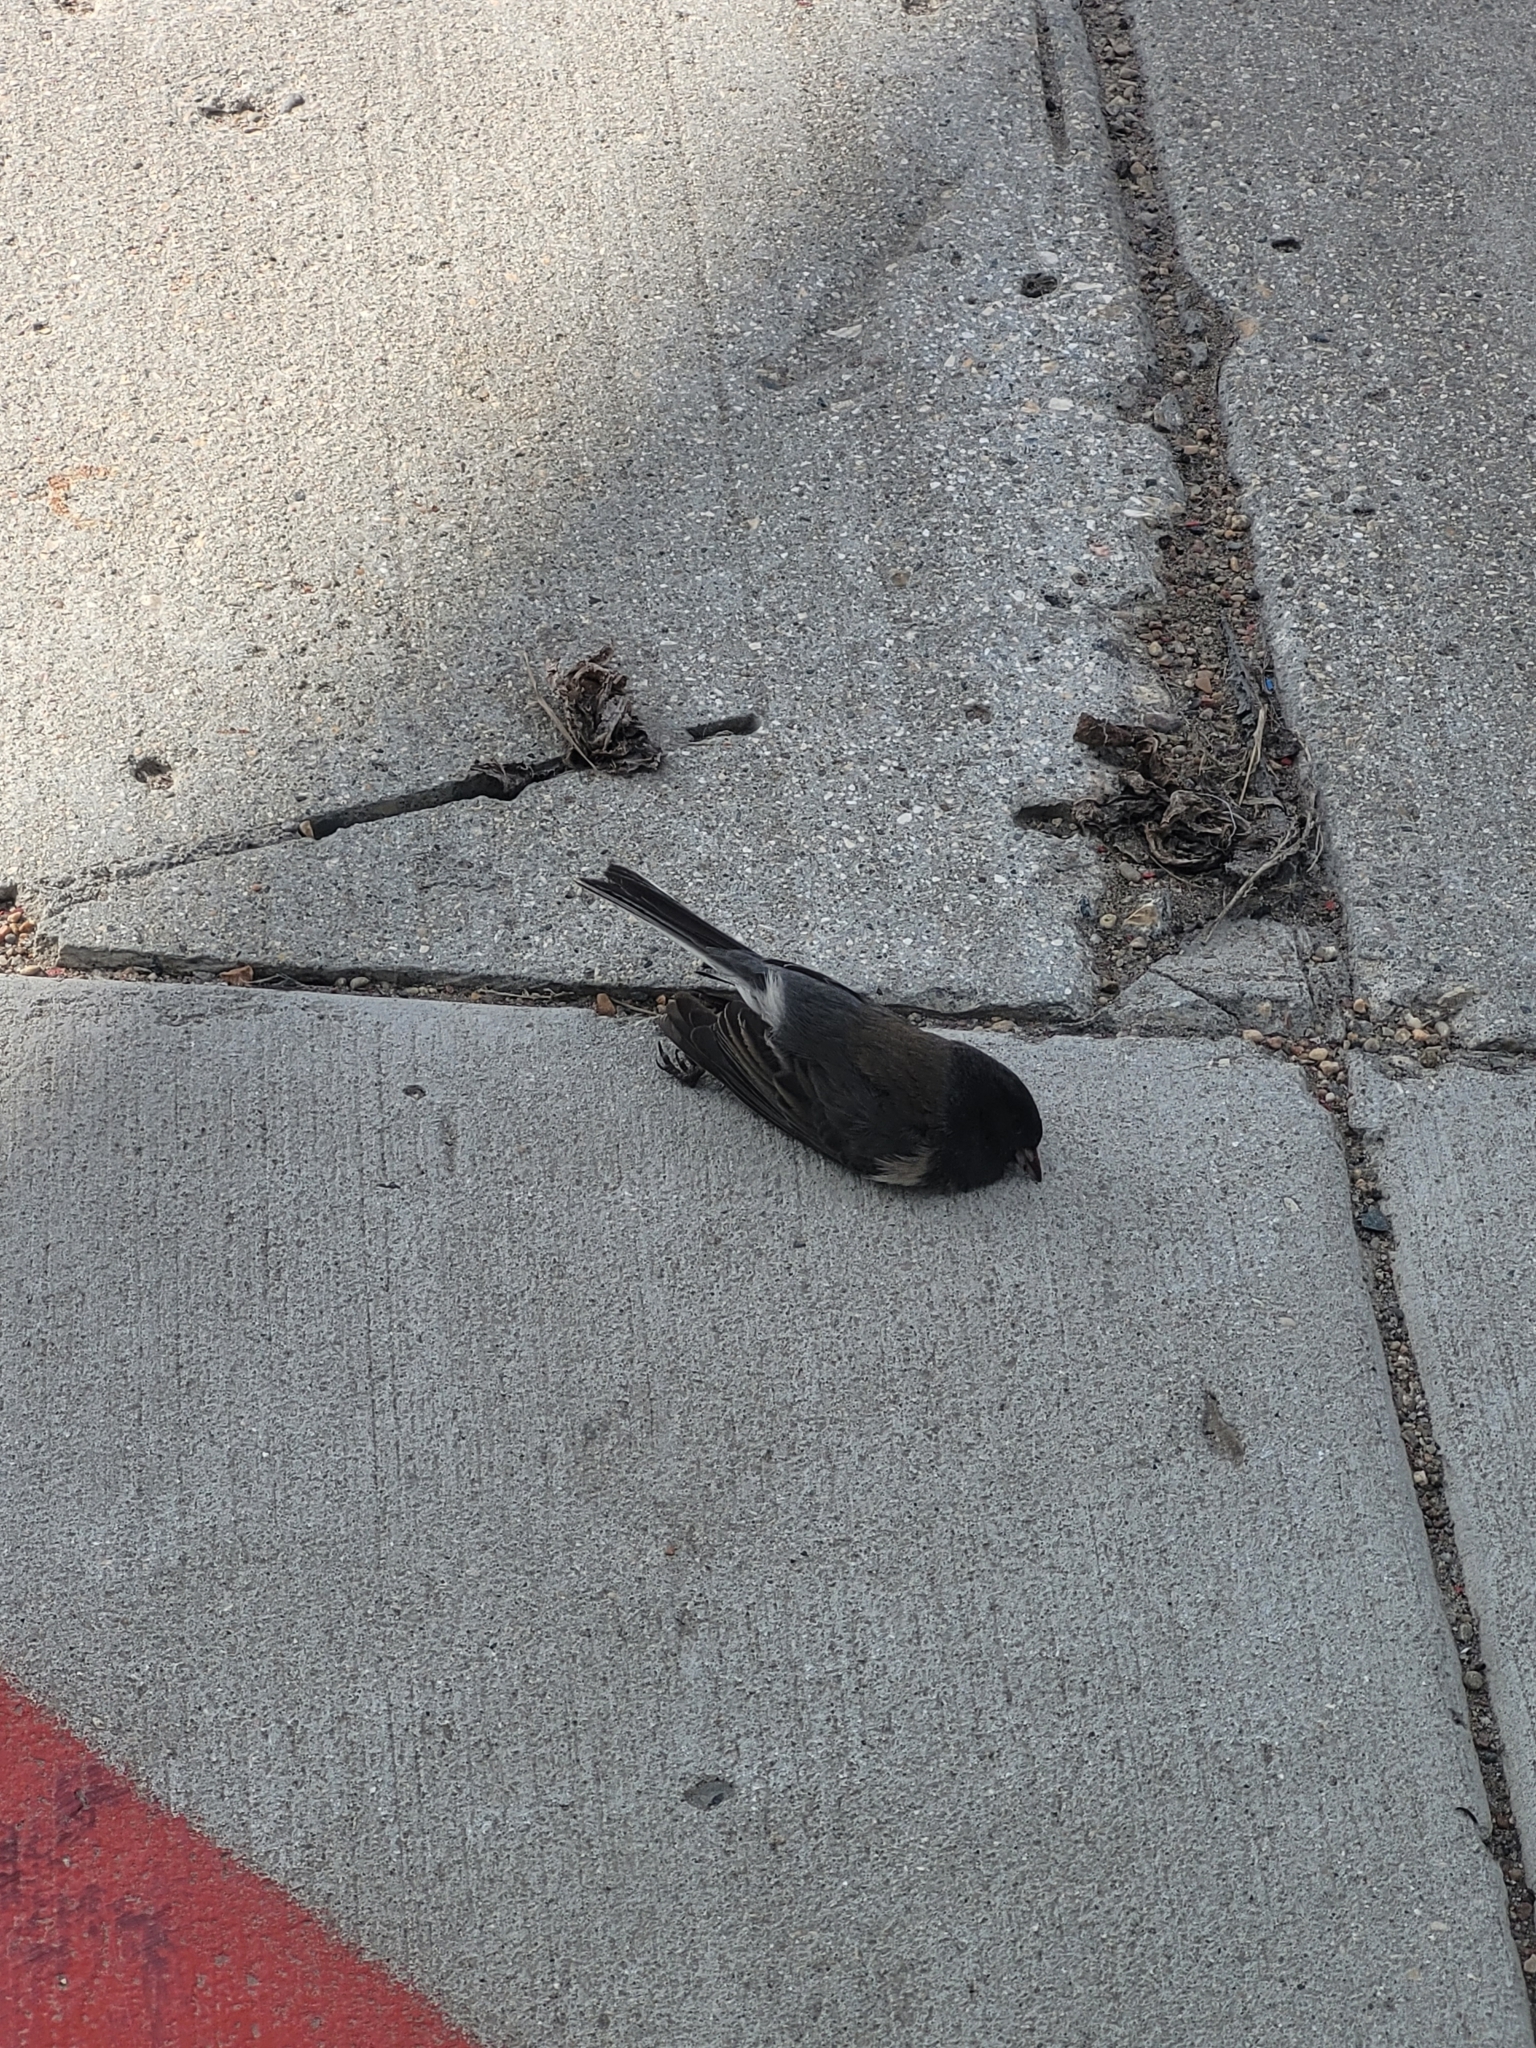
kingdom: Animalia
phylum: Chordata
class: Aves
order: Passeriformes
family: Passerellidae
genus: Junco
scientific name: Junco hyemalis
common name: Dark-eyed junco
